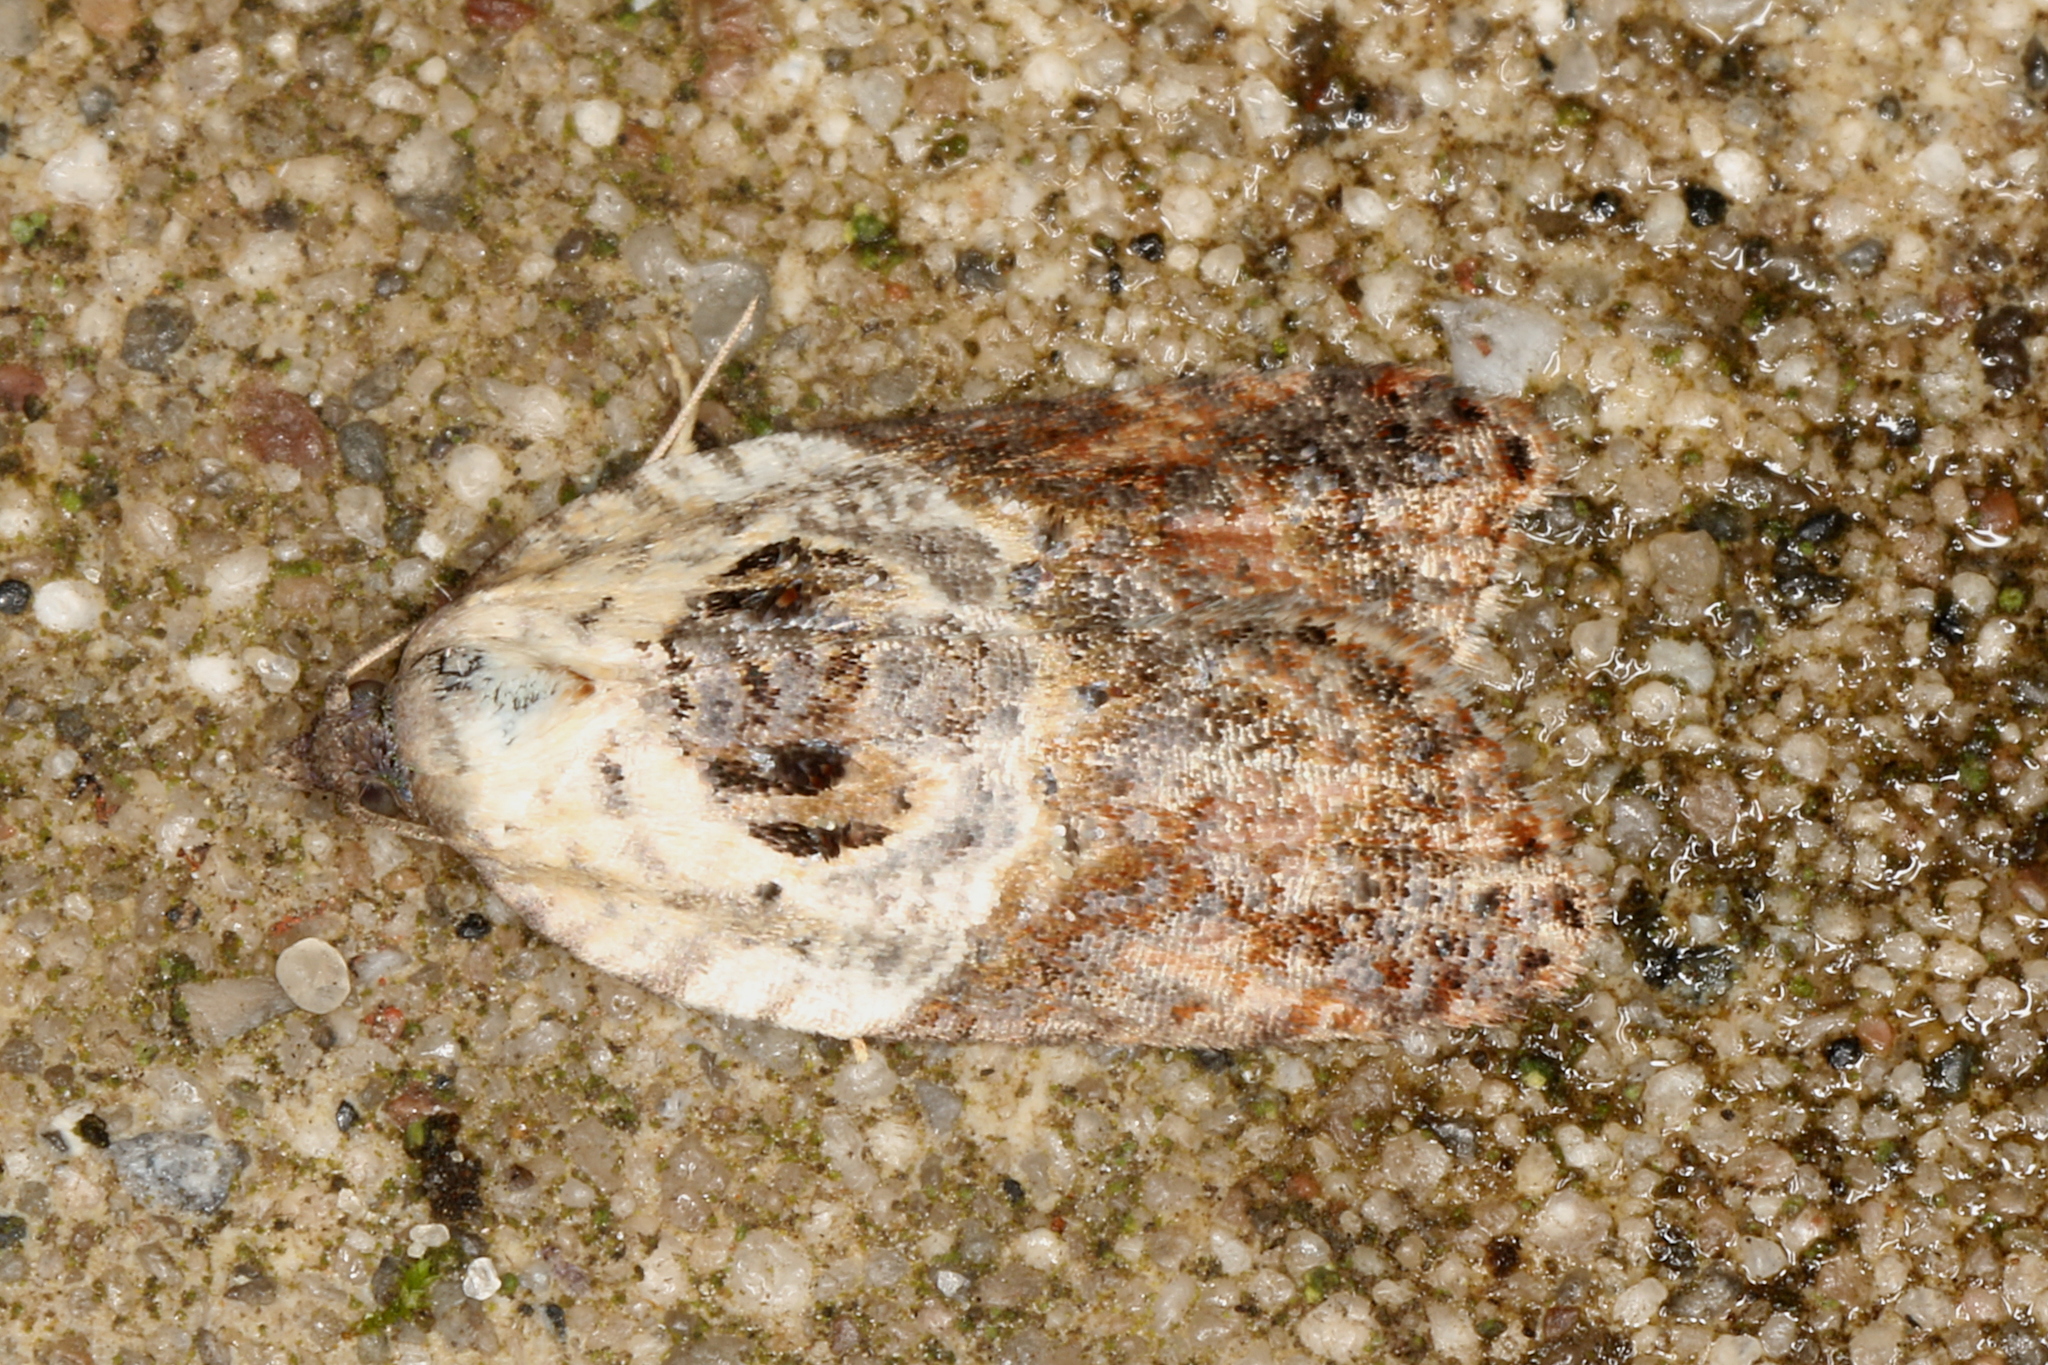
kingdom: Animalia
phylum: Arthropoda
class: Insecta
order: Lepidoptera
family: Tortricidae
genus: Acleris
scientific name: Acleris variegana
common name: Garden rose tortrix
